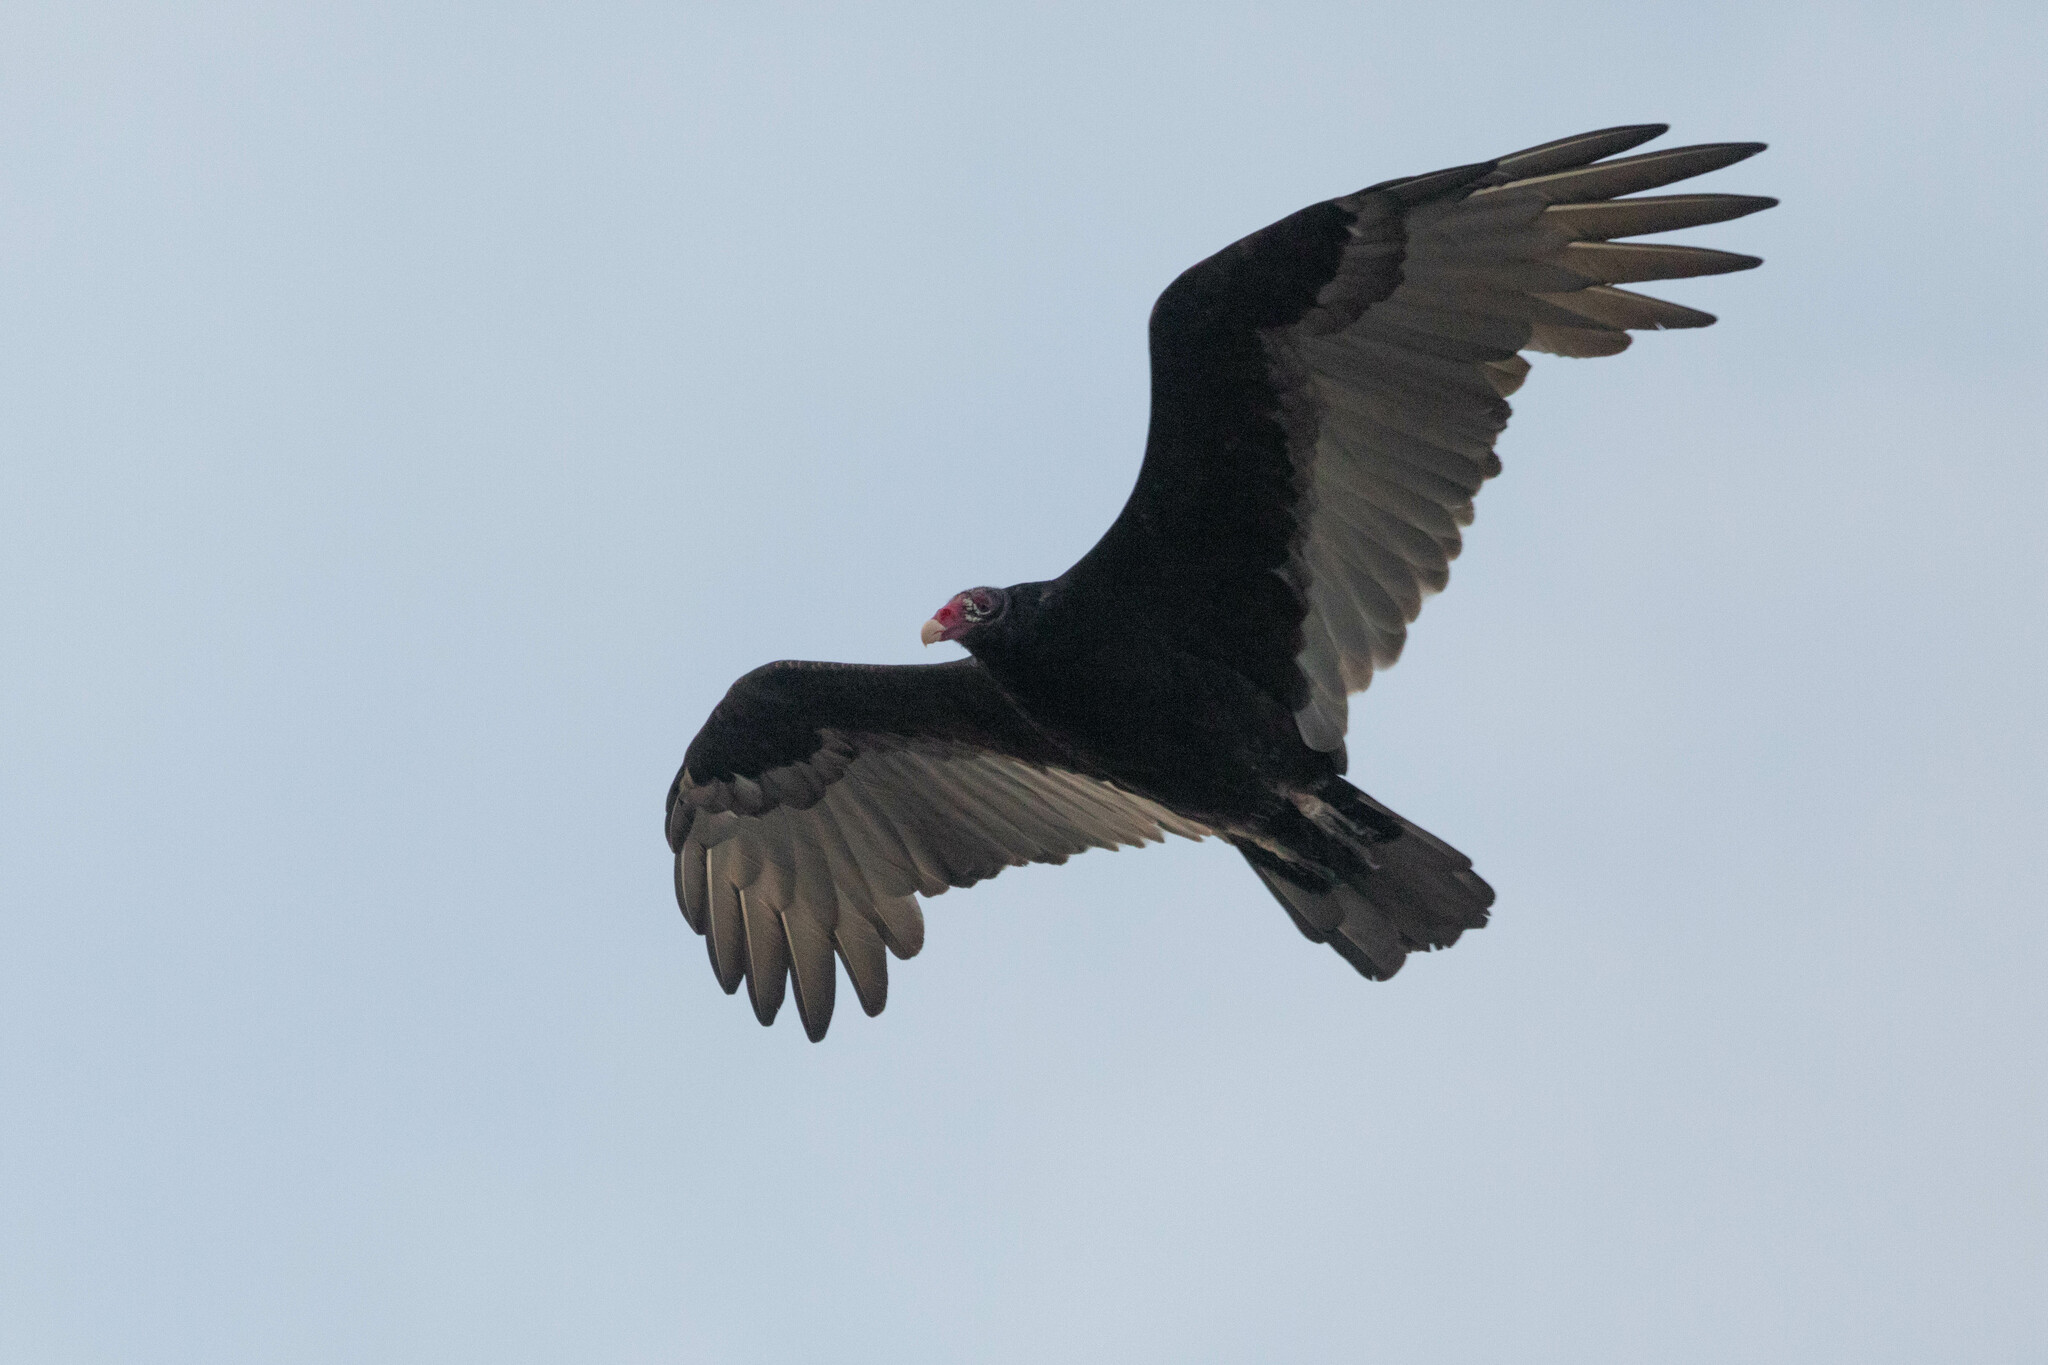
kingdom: Animalia
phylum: Chordata
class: Aves
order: Accipitriformes
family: Cathartidae
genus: Cathartes
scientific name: Cathartes aura
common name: Turkey vulture
